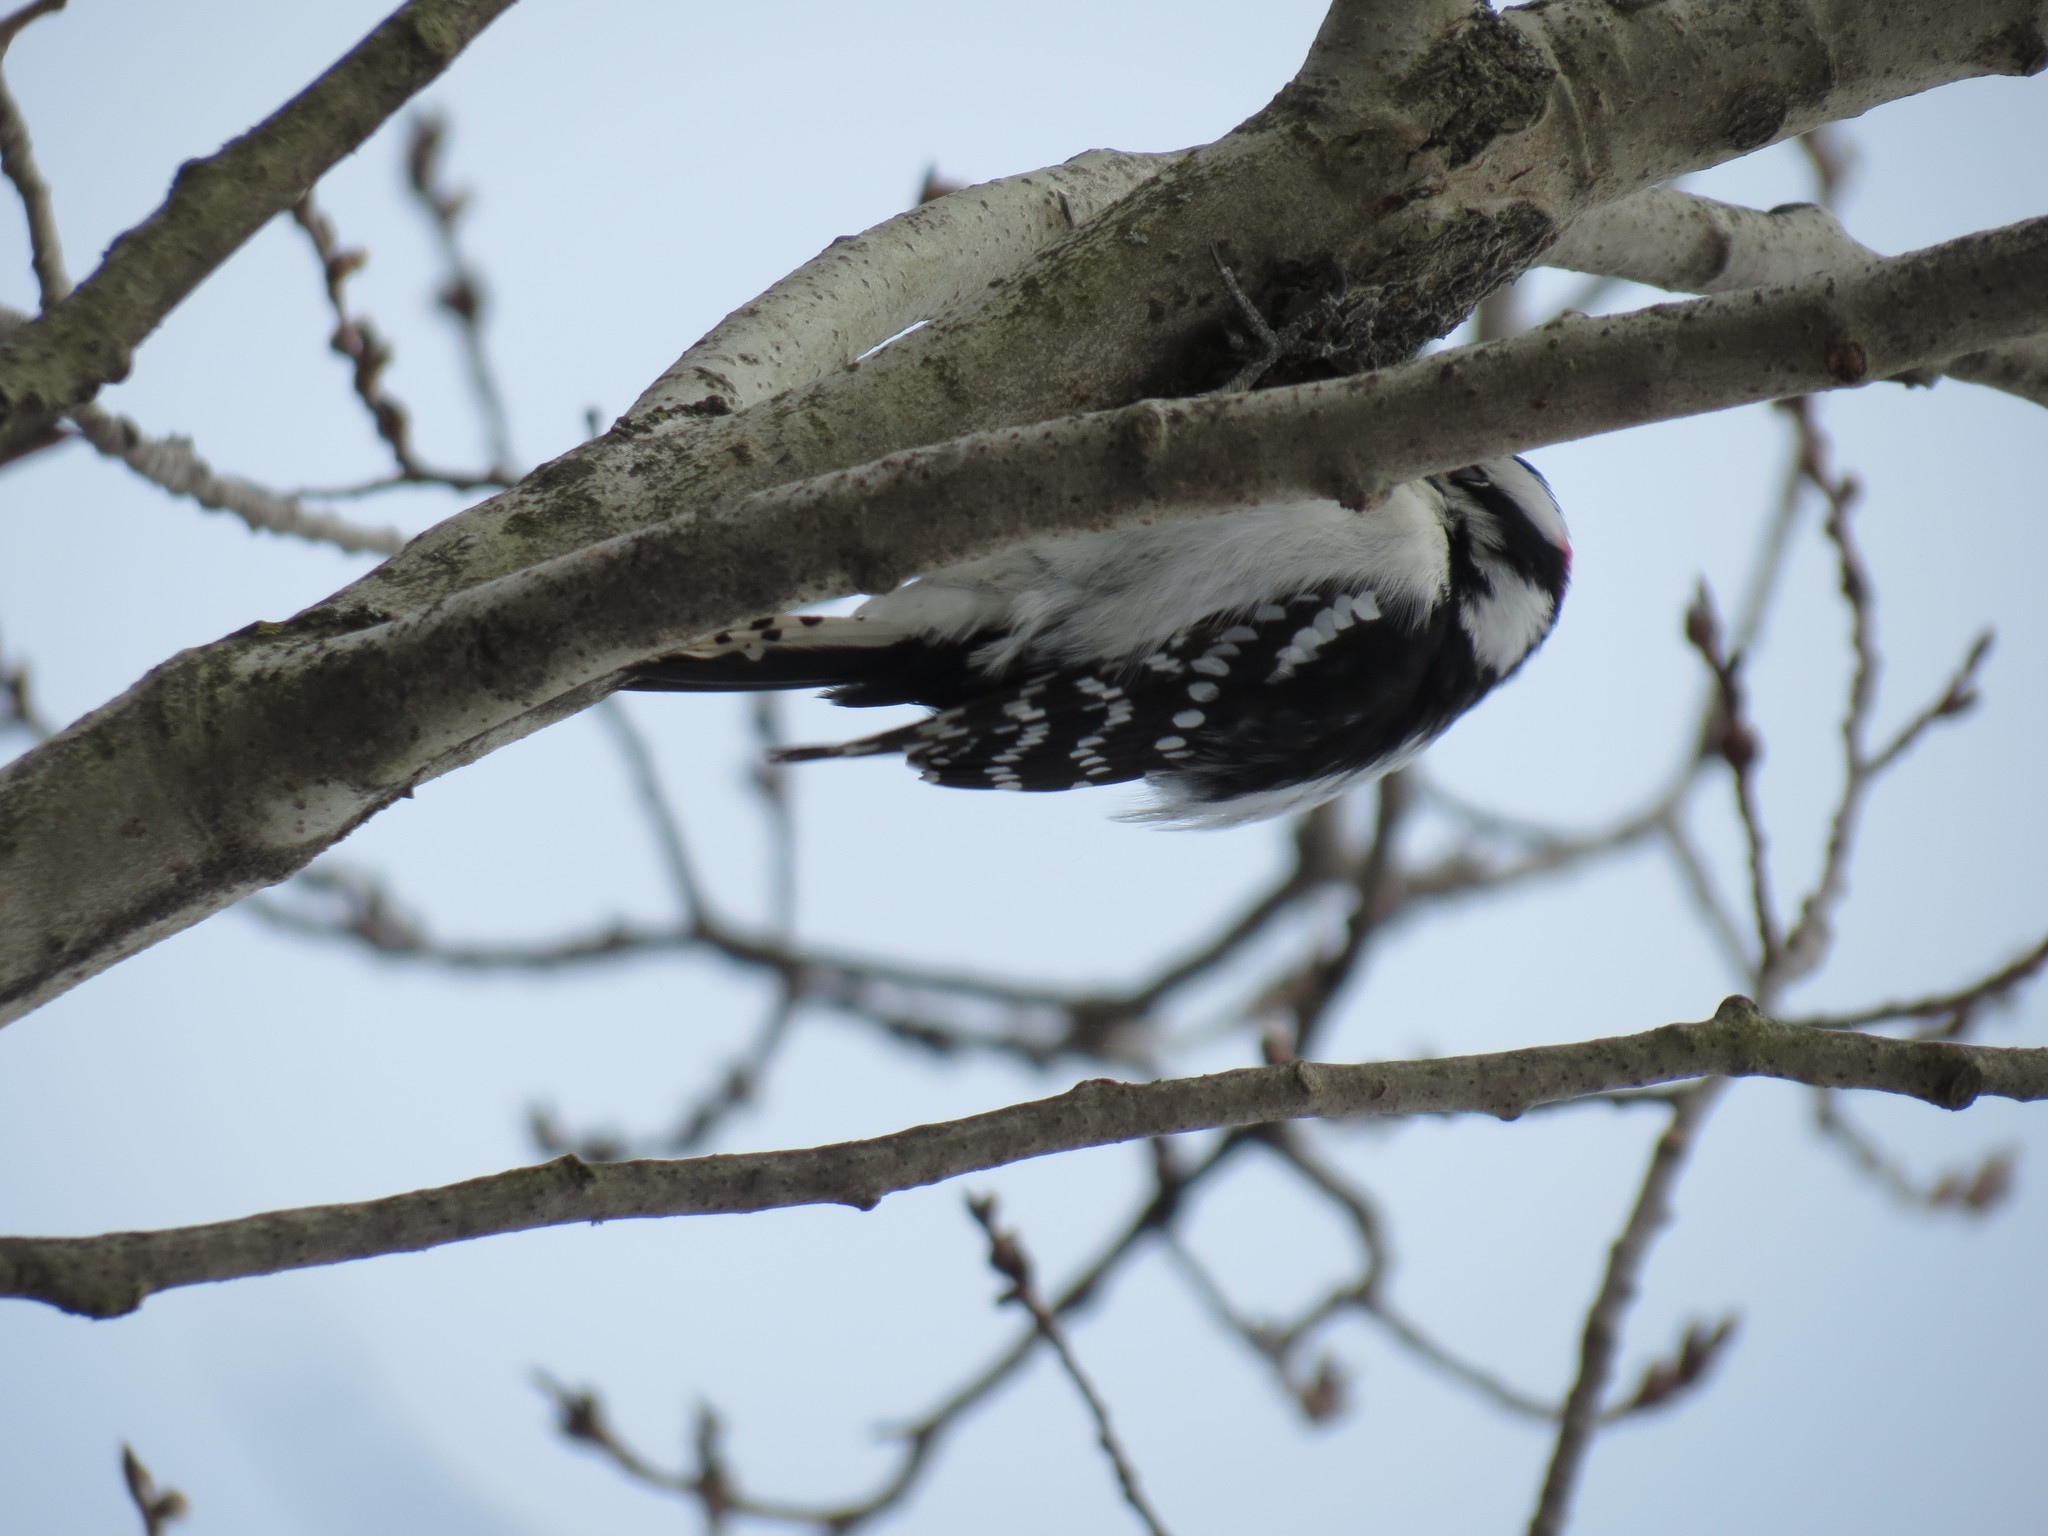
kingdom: Animalia
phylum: Chordata
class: Aves
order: Piciformes
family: Picidae
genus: Dryobates
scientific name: Dryobates pubescens
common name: Downy woodpecker
